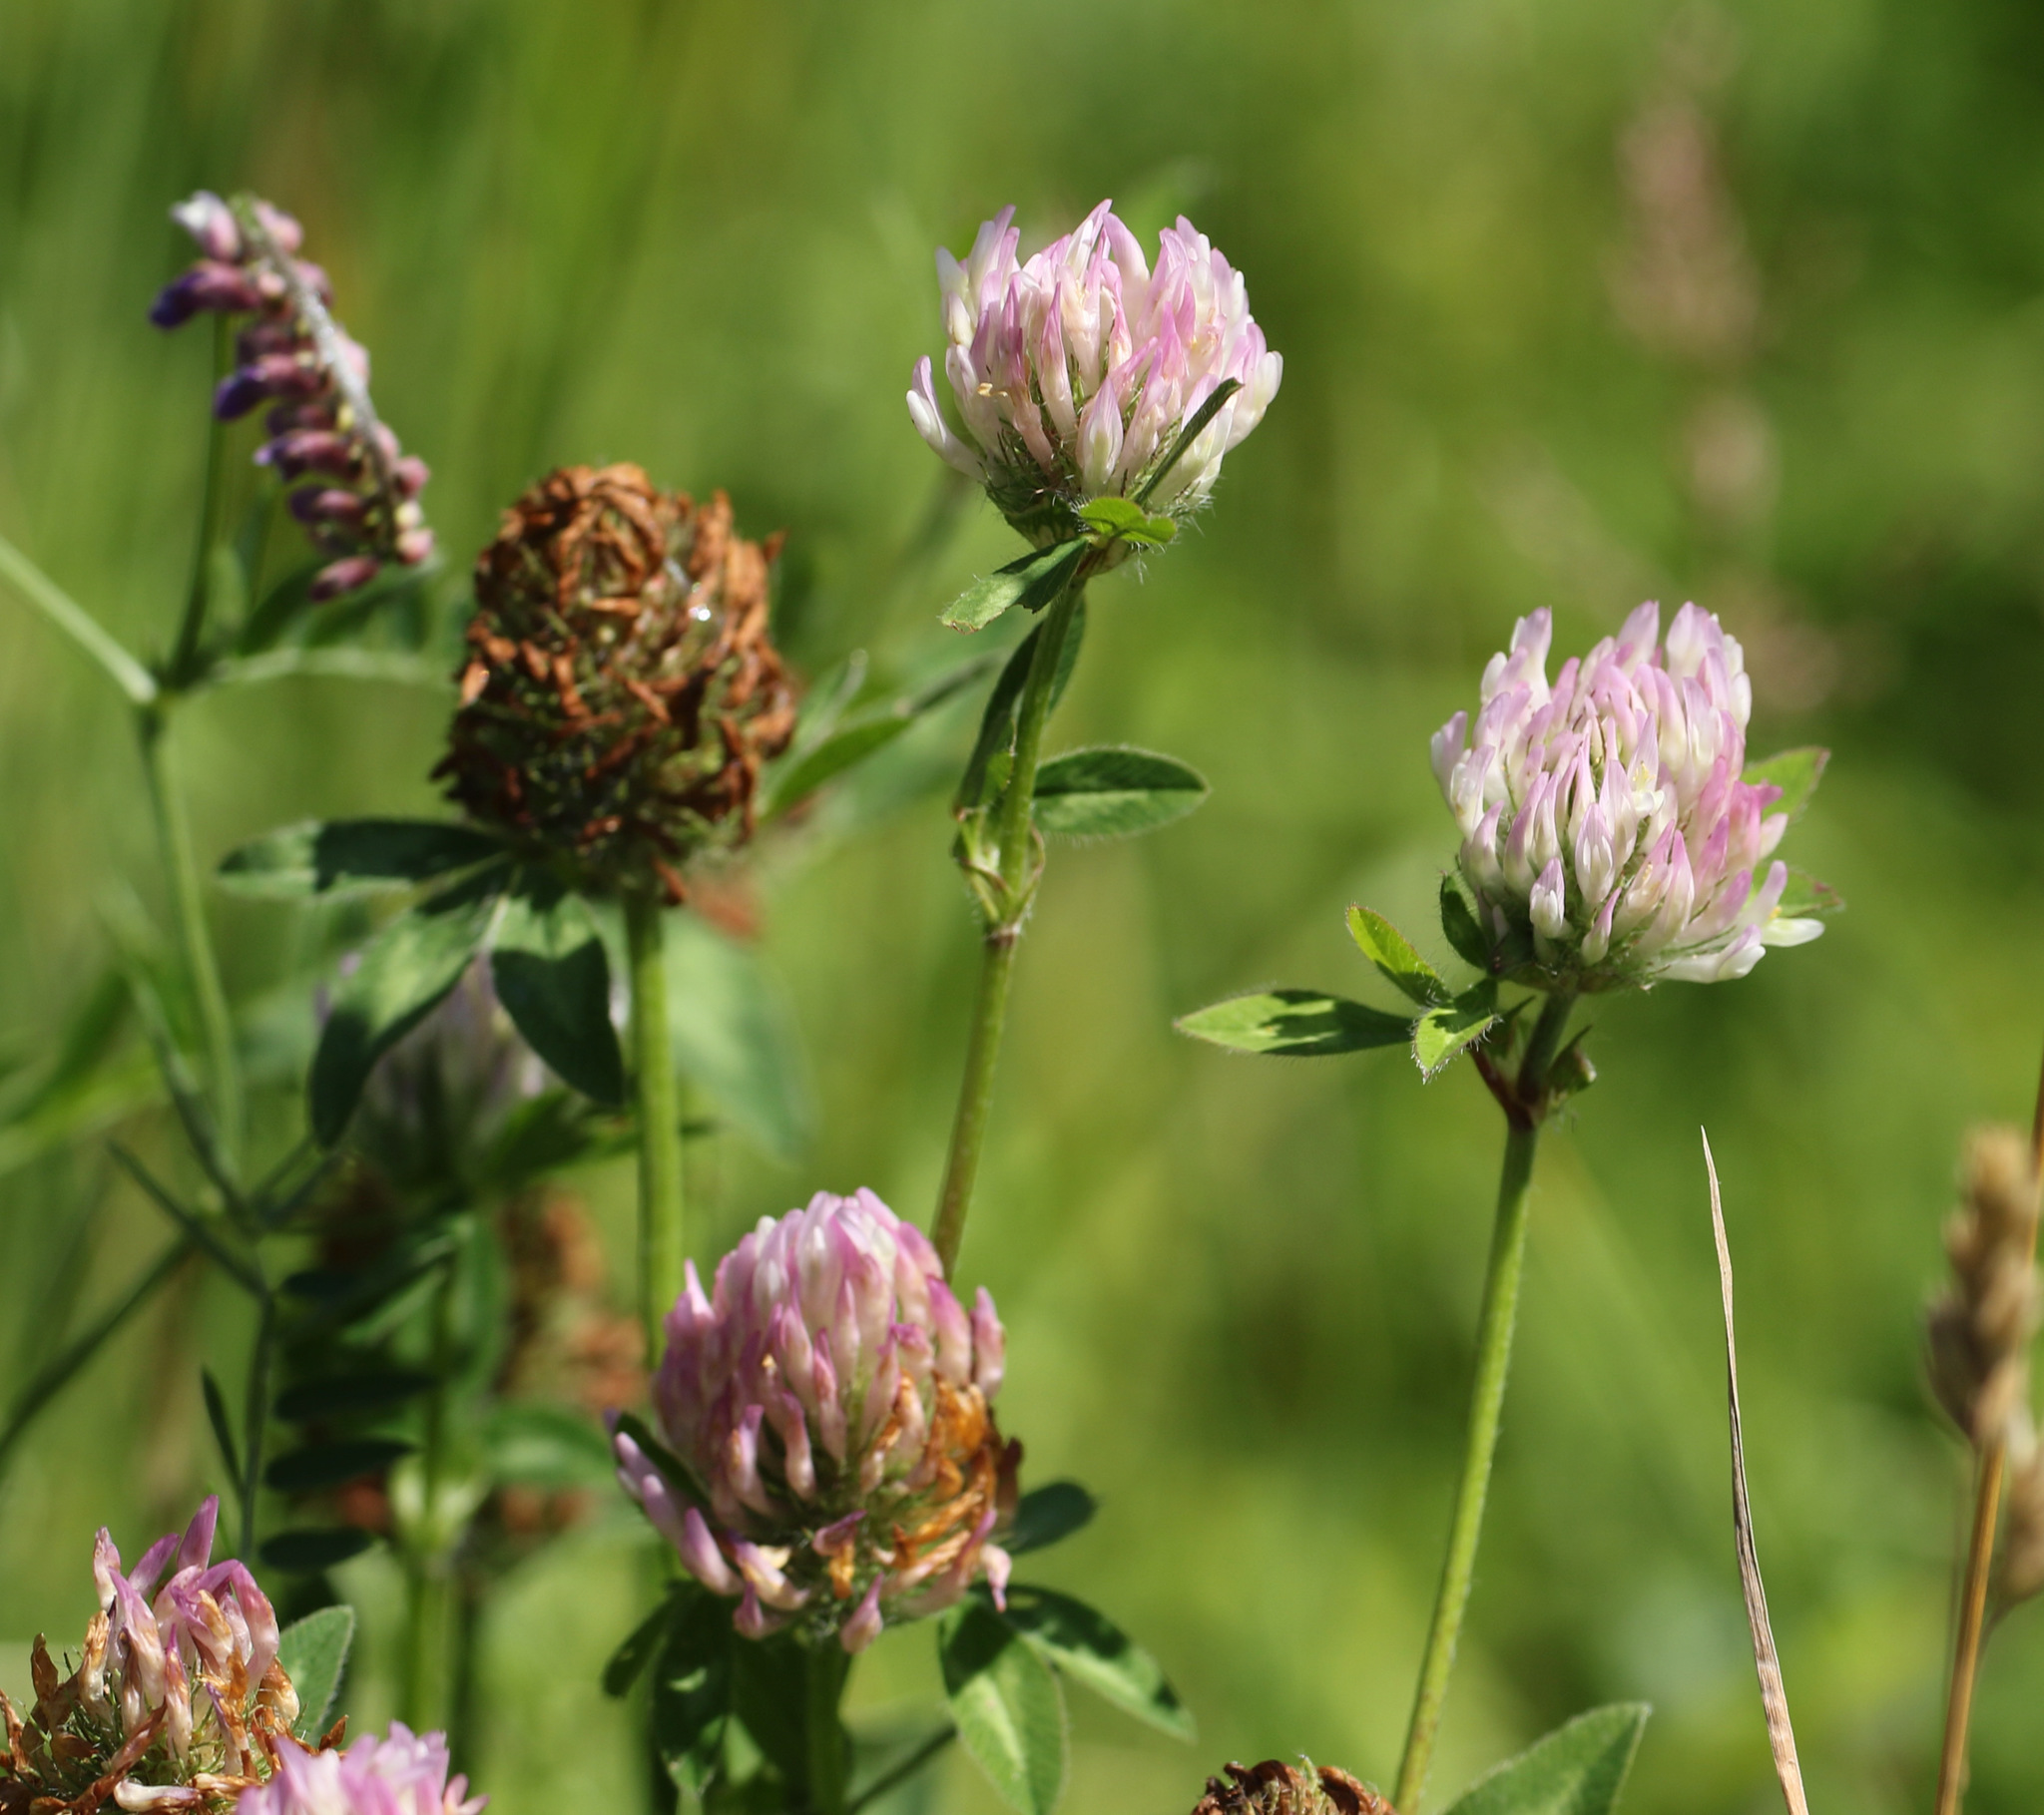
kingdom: Plantae
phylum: Tracheophyta
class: Magnoliopsida
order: Fabales
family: Fabaceae
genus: Trifolium
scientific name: Trifolium pratense
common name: Red clover
